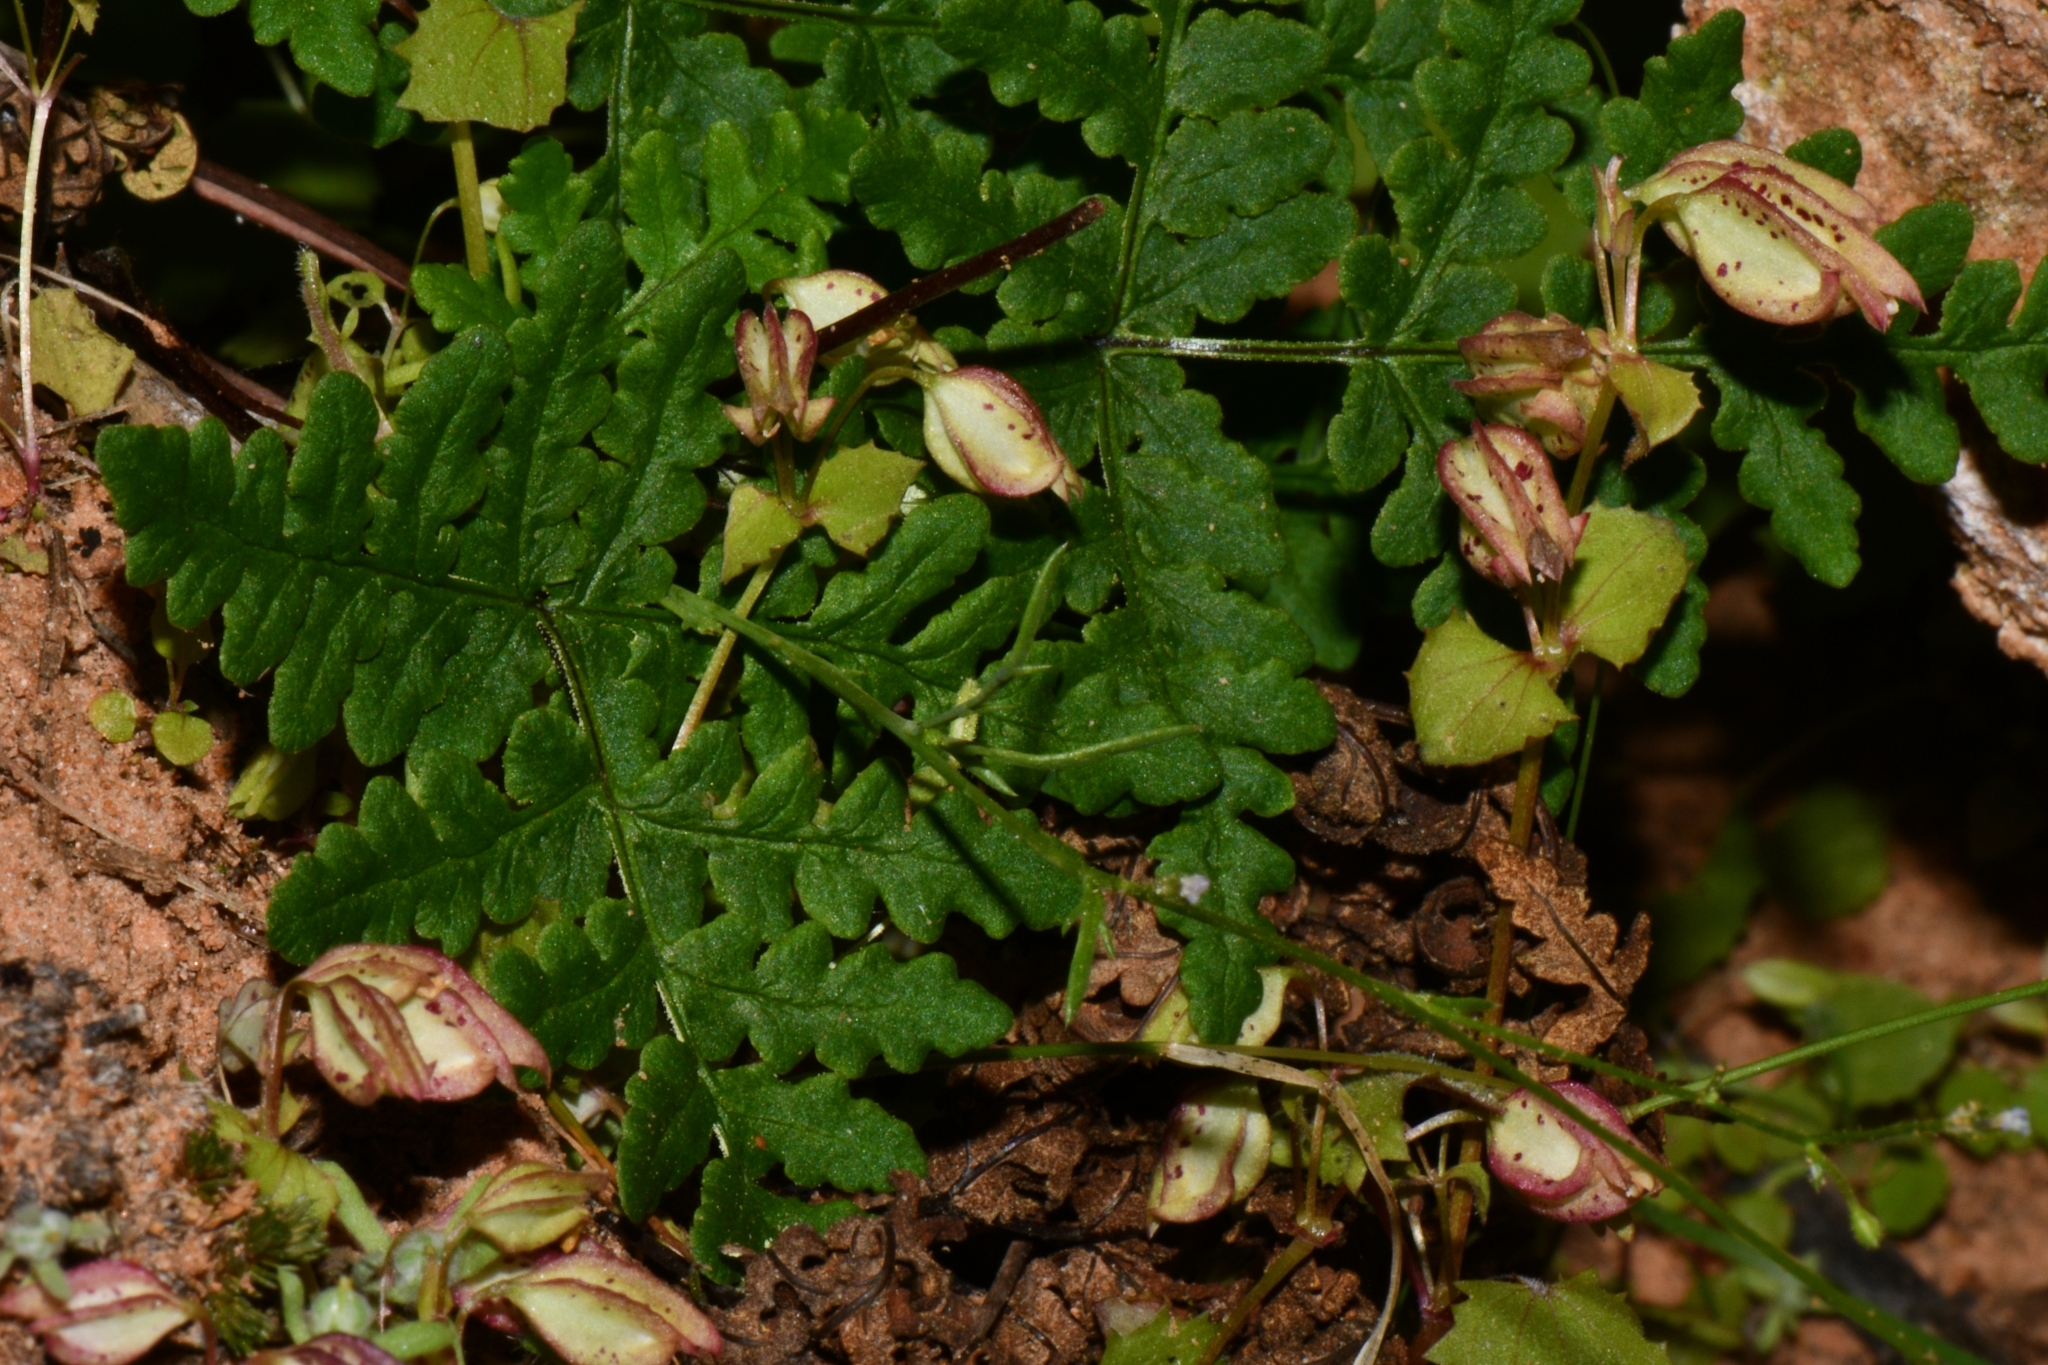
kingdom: Plantae
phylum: Tracheophyta
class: Polypodiopsida
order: Polypodiales
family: Pteridaceae
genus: Pentagramma
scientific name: Pentagramma triangularis
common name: Gold fern
